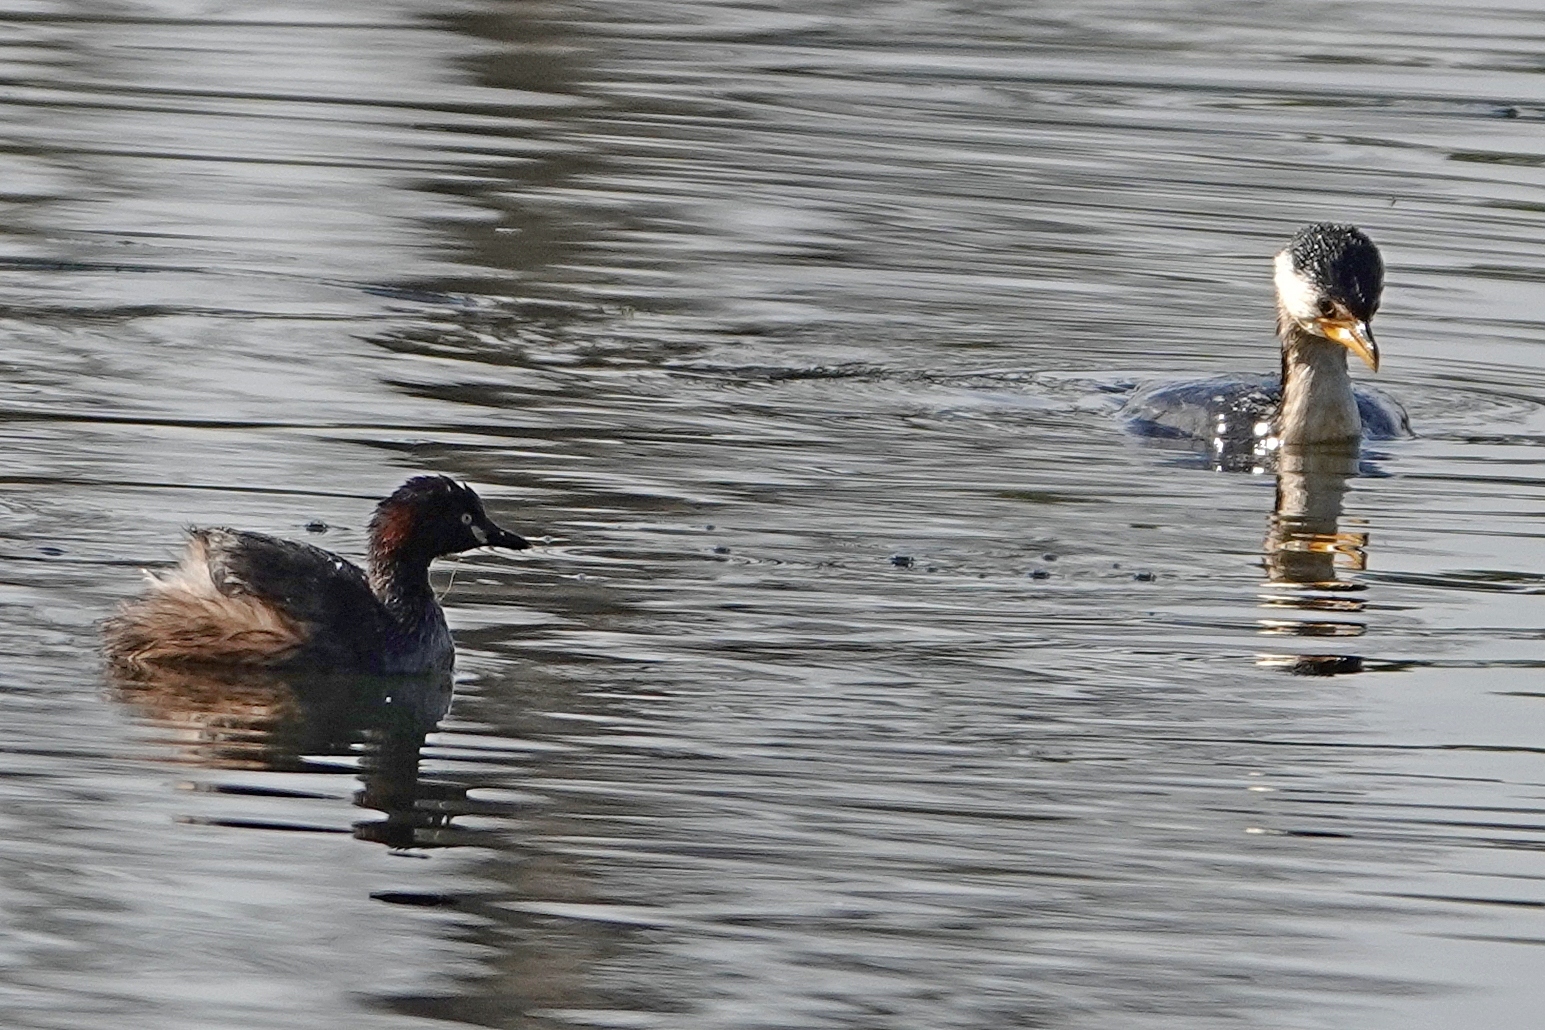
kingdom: Animalia
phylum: Chordata
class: Aves
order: Podicipediformes
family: Podicipedidae
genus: Tachybaptus
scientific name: Tachybaptus novaehollandiae
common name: Australasian grebe
